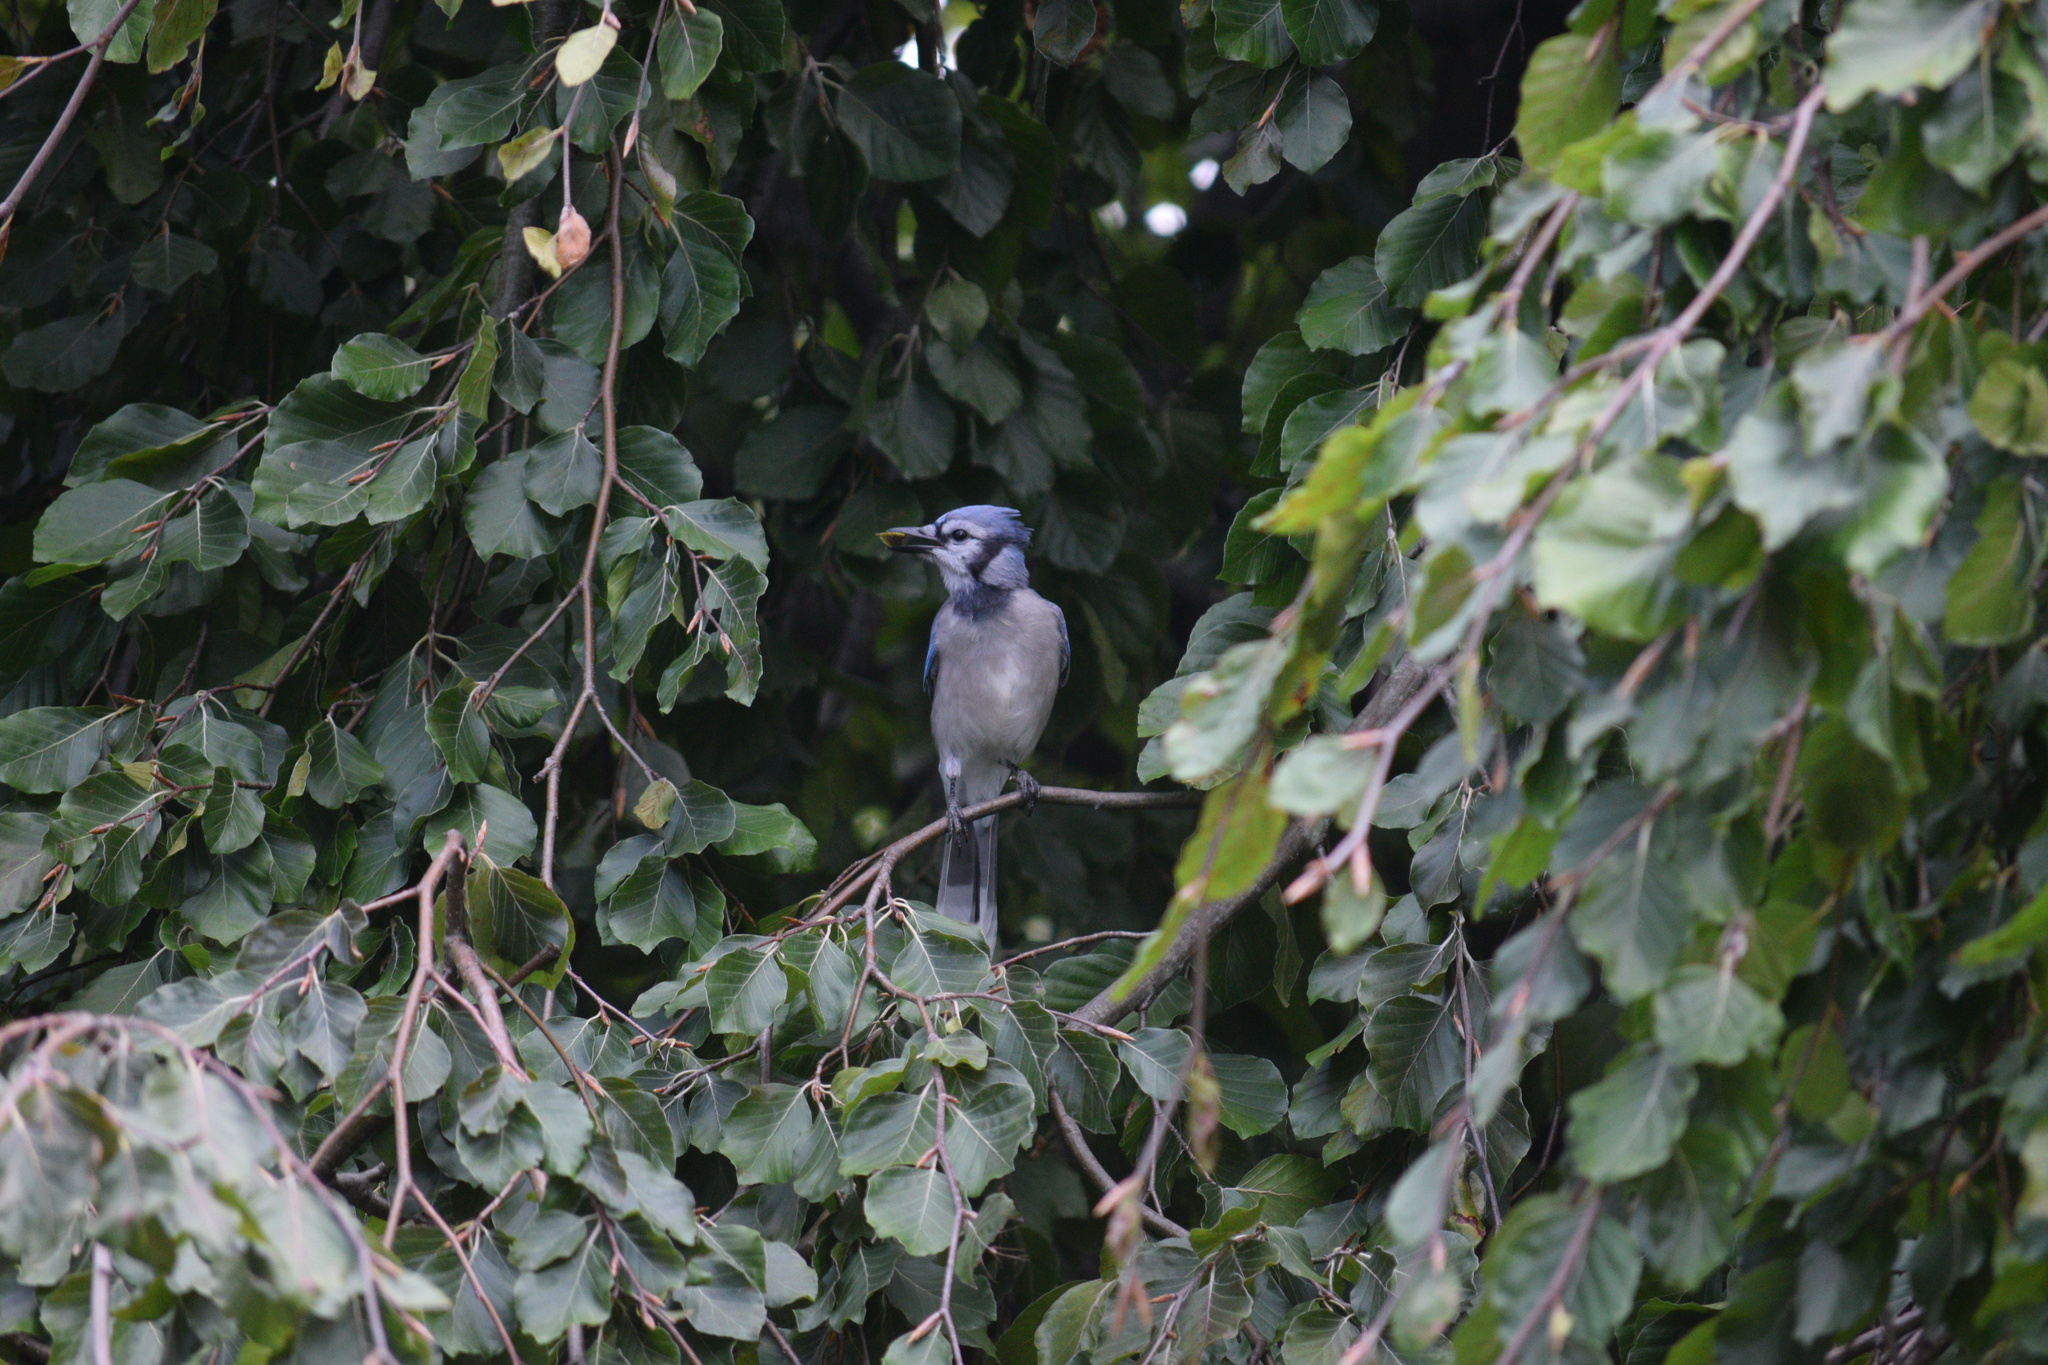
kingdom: Animalia
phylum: Chordata
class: Aves
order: Passeriformes
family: Corvidae
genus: Cyanocitta
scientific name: Cyanocitta cristata
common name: Blue jay
